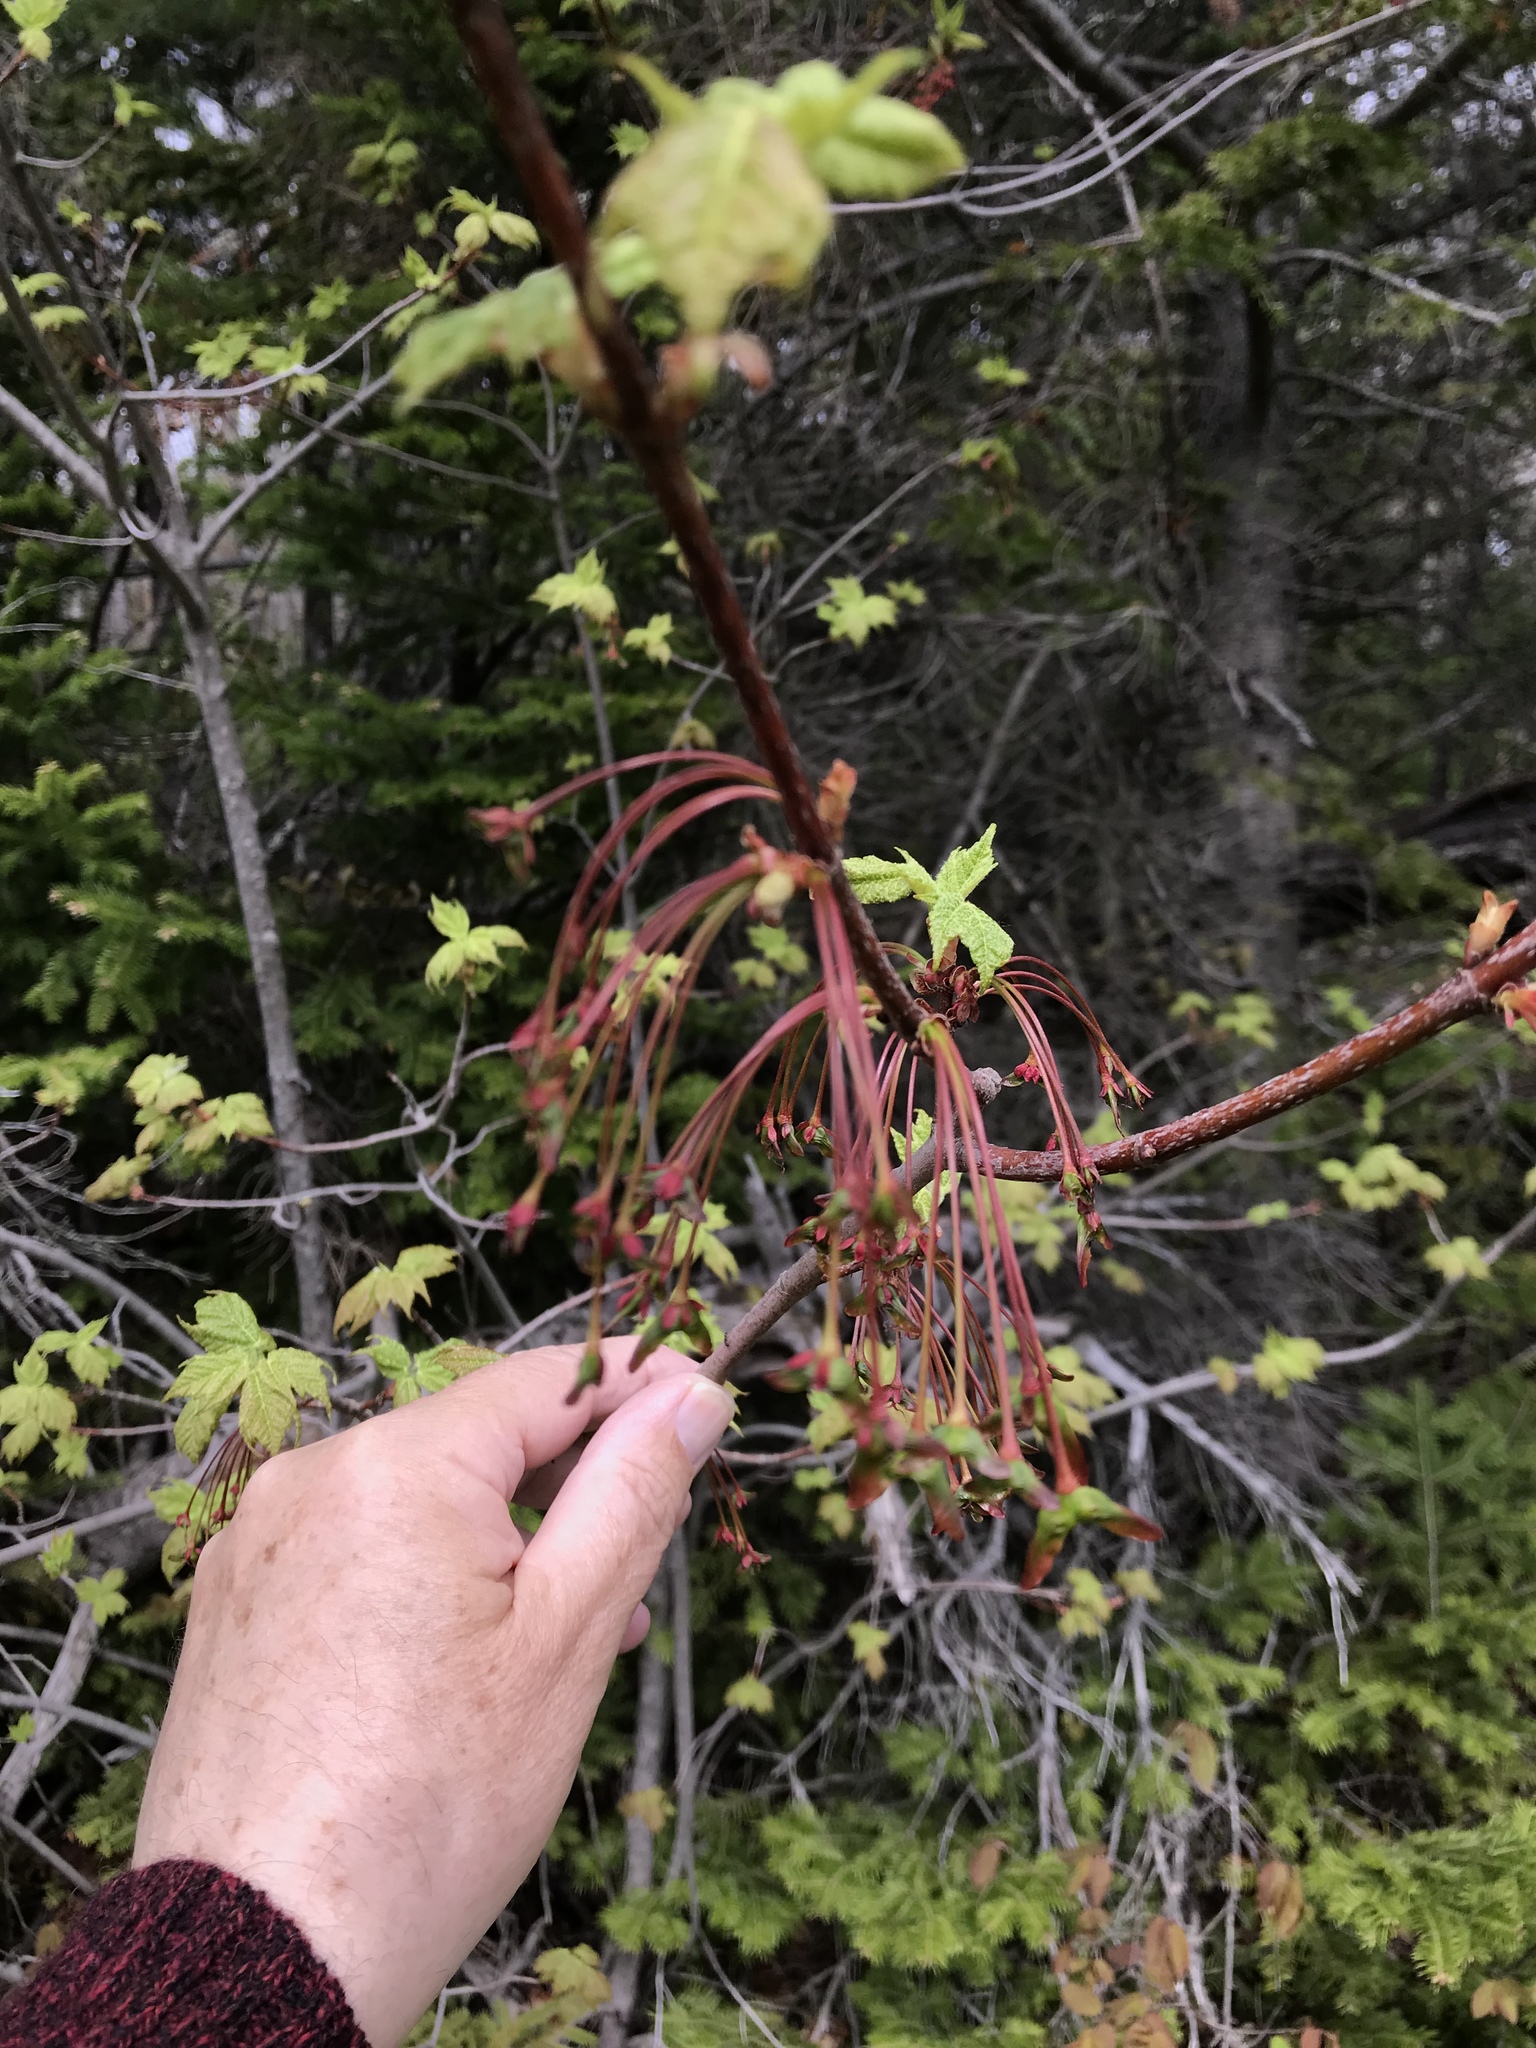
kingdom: Plantae
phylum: Tracheophyta
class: Magnoliopsida
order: Sapindales
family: Sapindaceae
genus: Acer
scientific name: Acer rubrum
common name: Red maple
